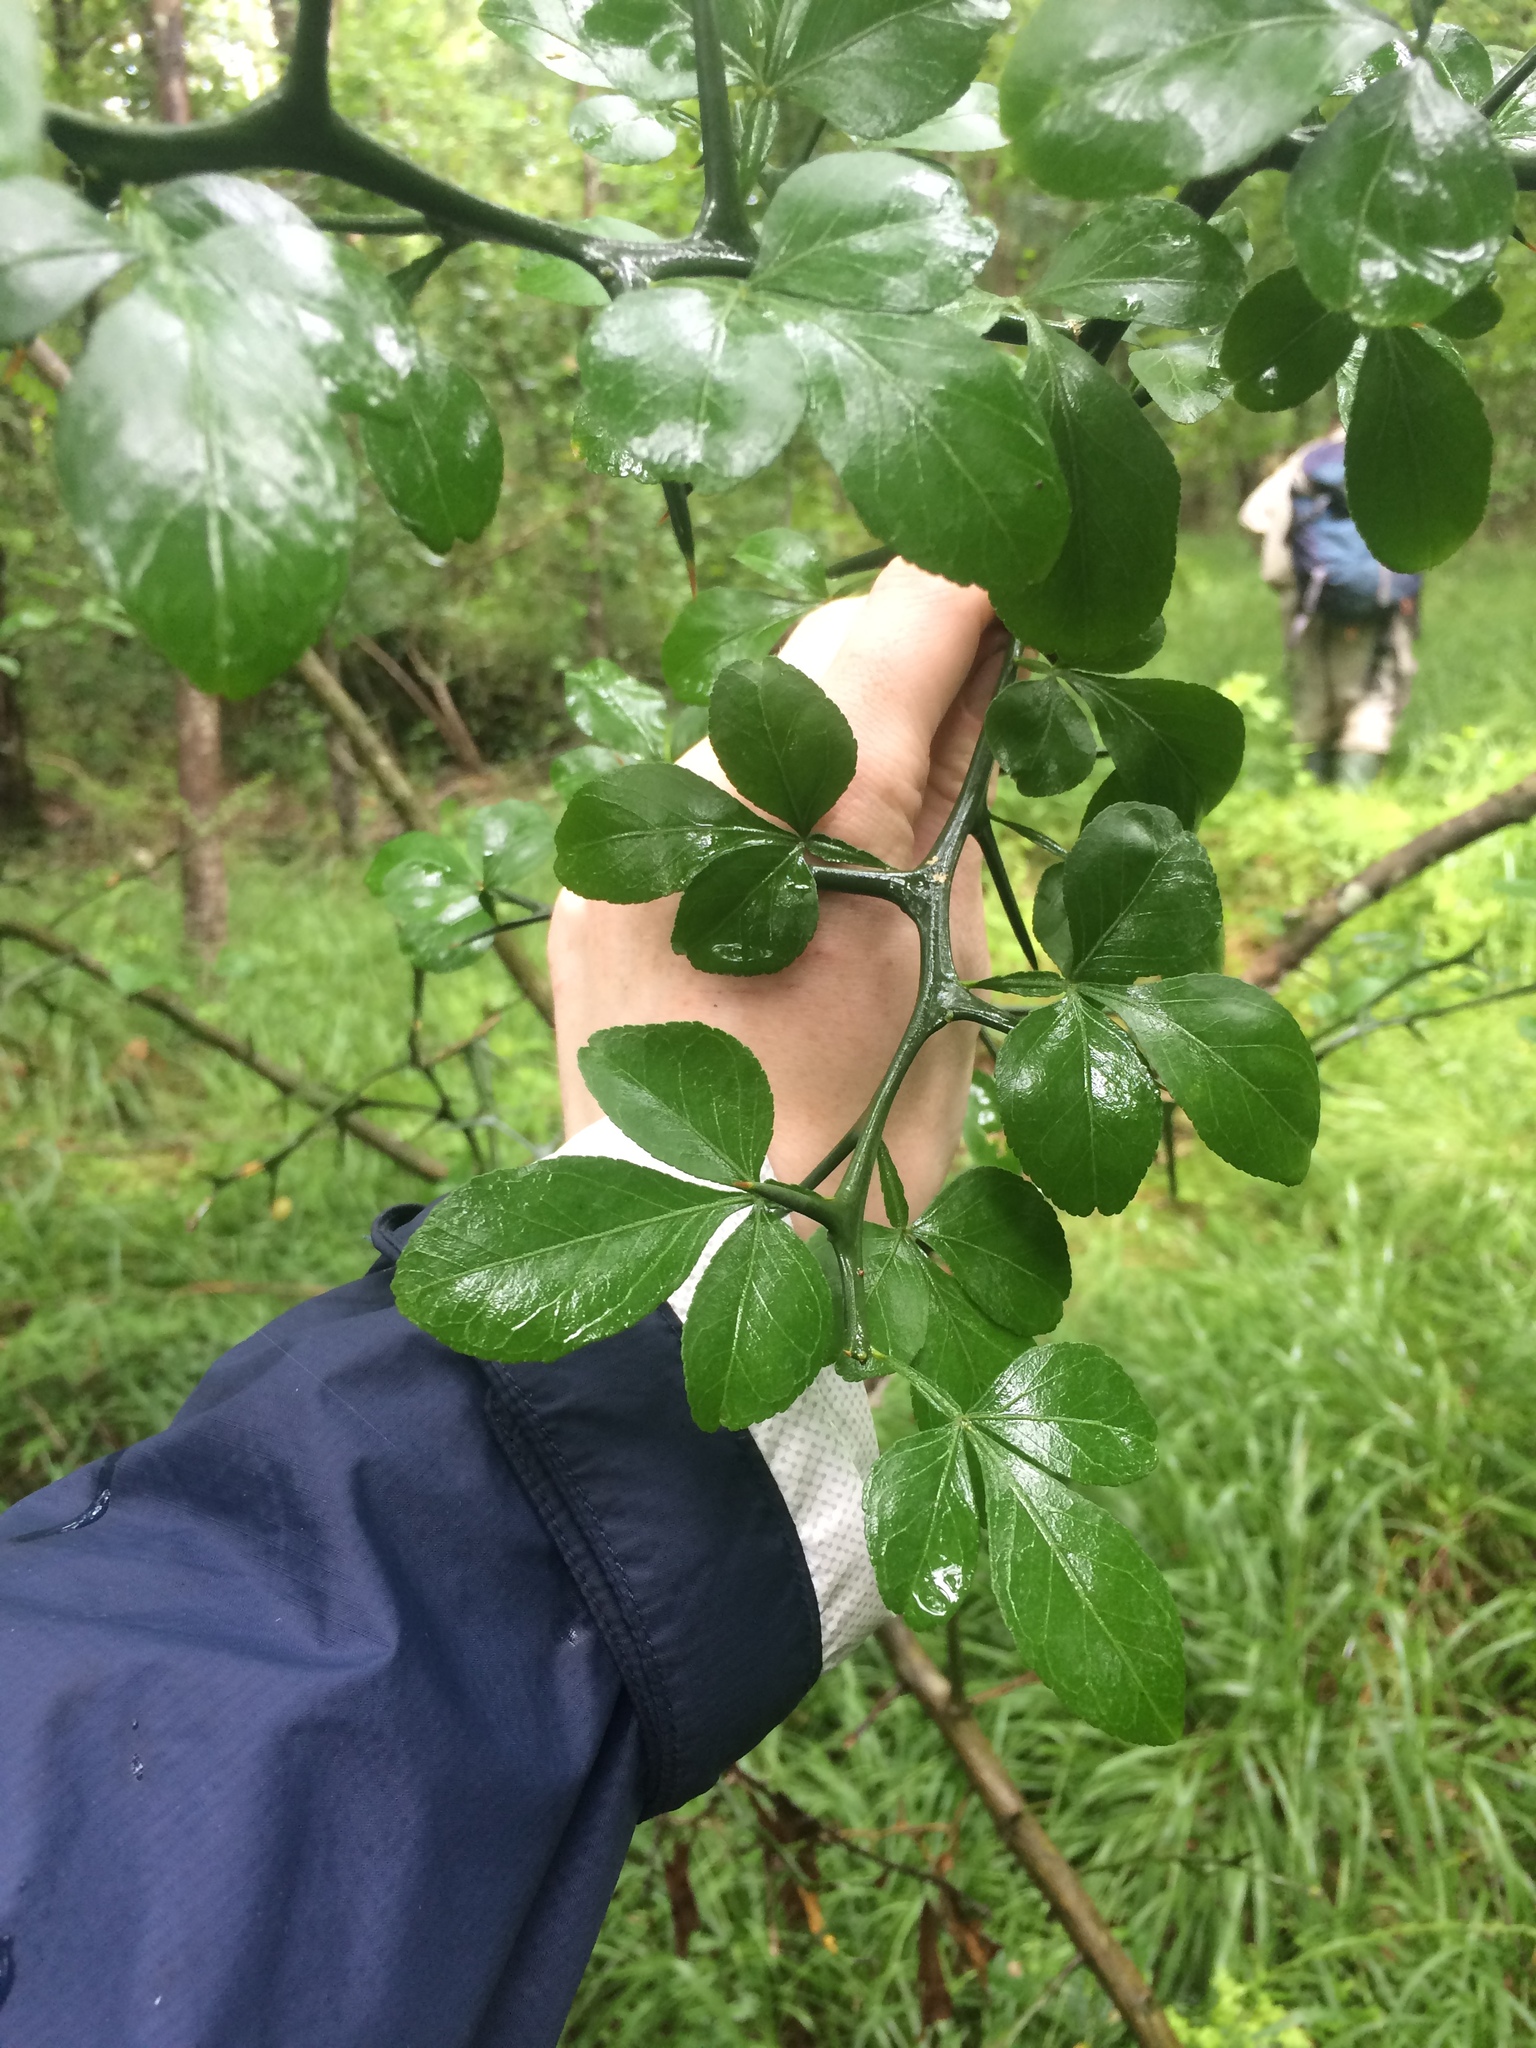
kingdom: Plantae
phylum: Tracheophyta
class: Magnoliopsida
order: Sapindales
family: Rutaceae
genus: Citrus
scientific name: Citrus trifoliata
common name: Japanese bitter-orange
